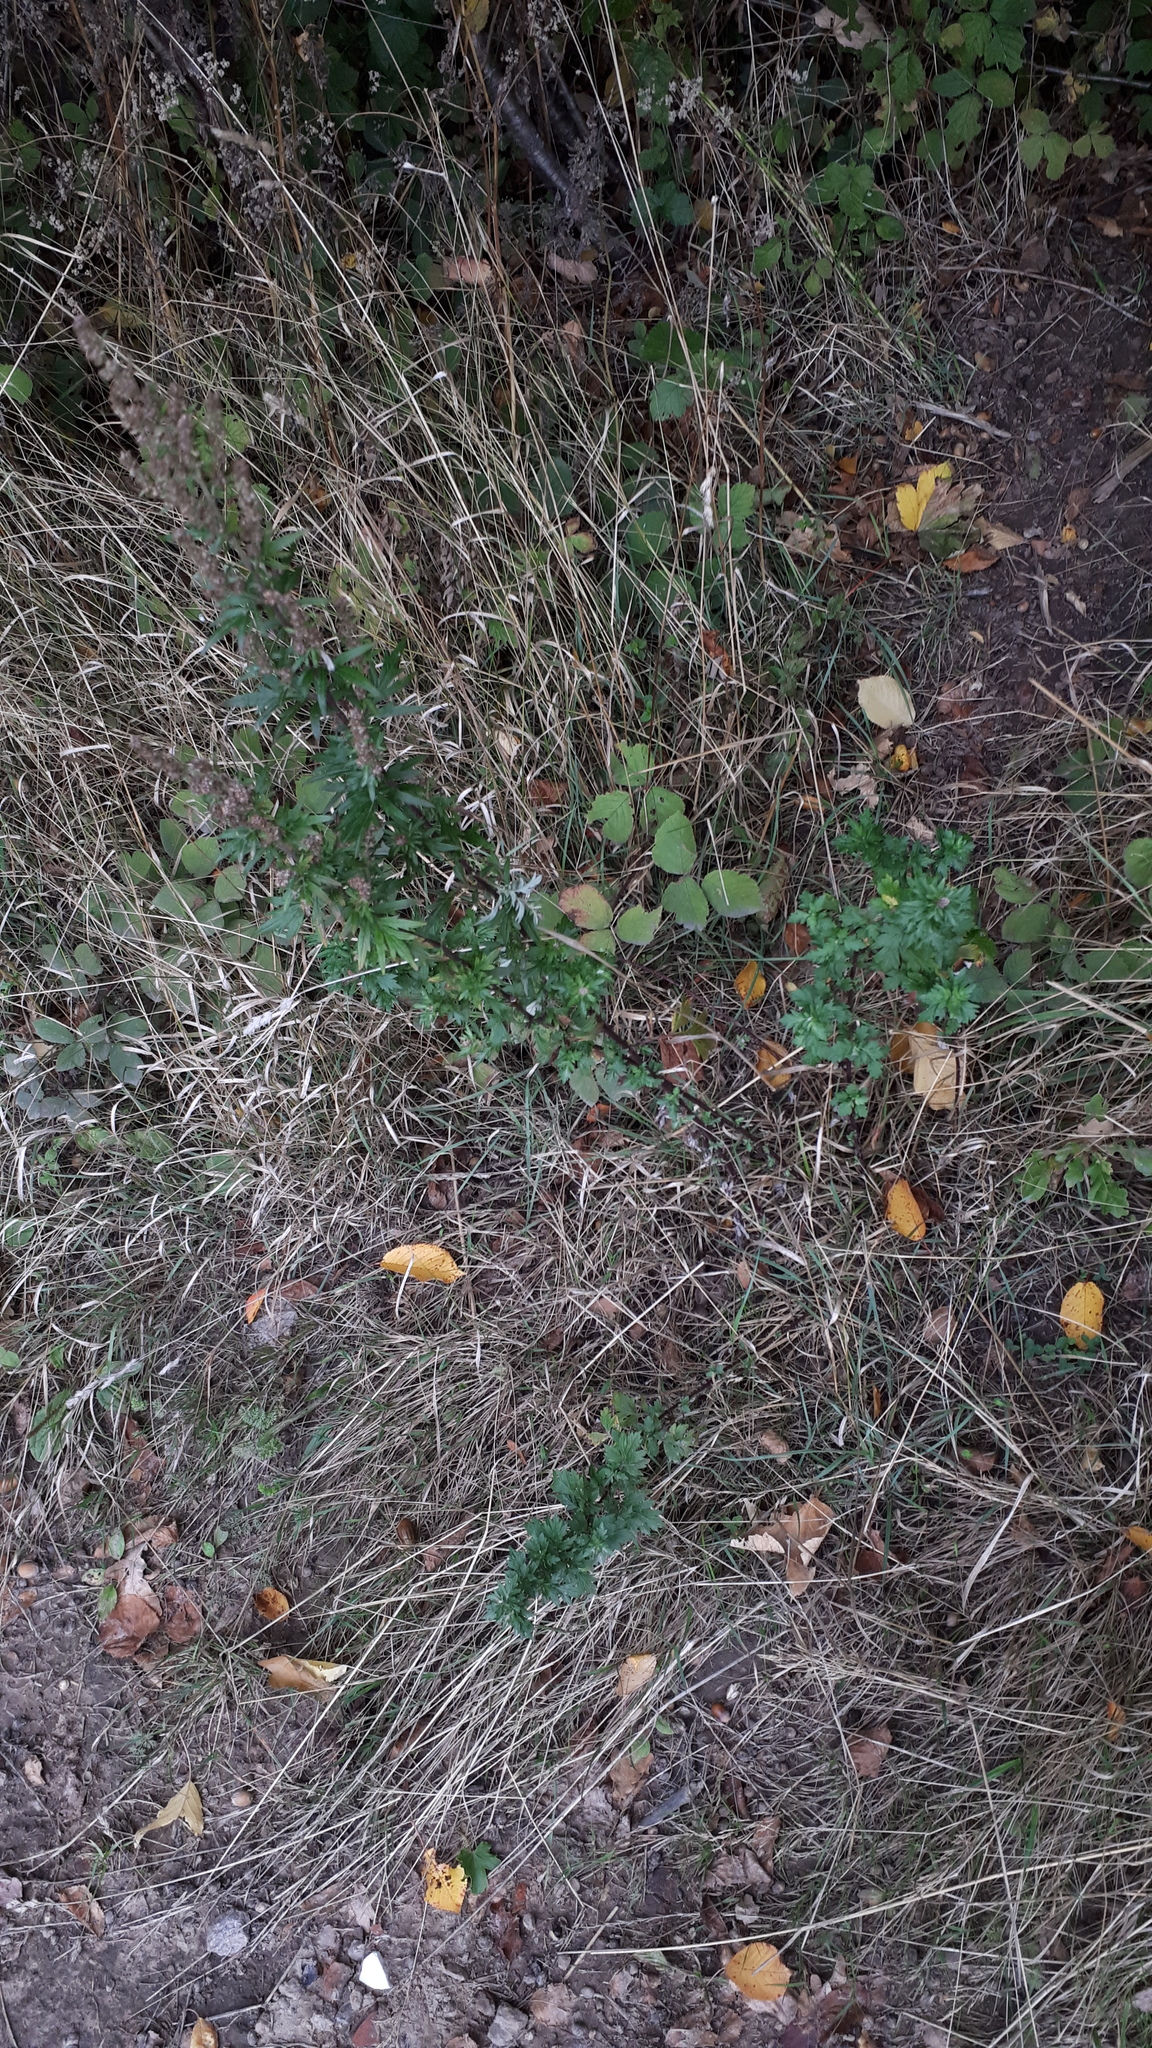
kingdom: Plantae
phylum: Tracheophyta
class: Magnoliopsida
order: Asterales
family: Asteraceae
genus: Artemisia
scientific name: Artemisia vulgaris
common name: Mugwort
